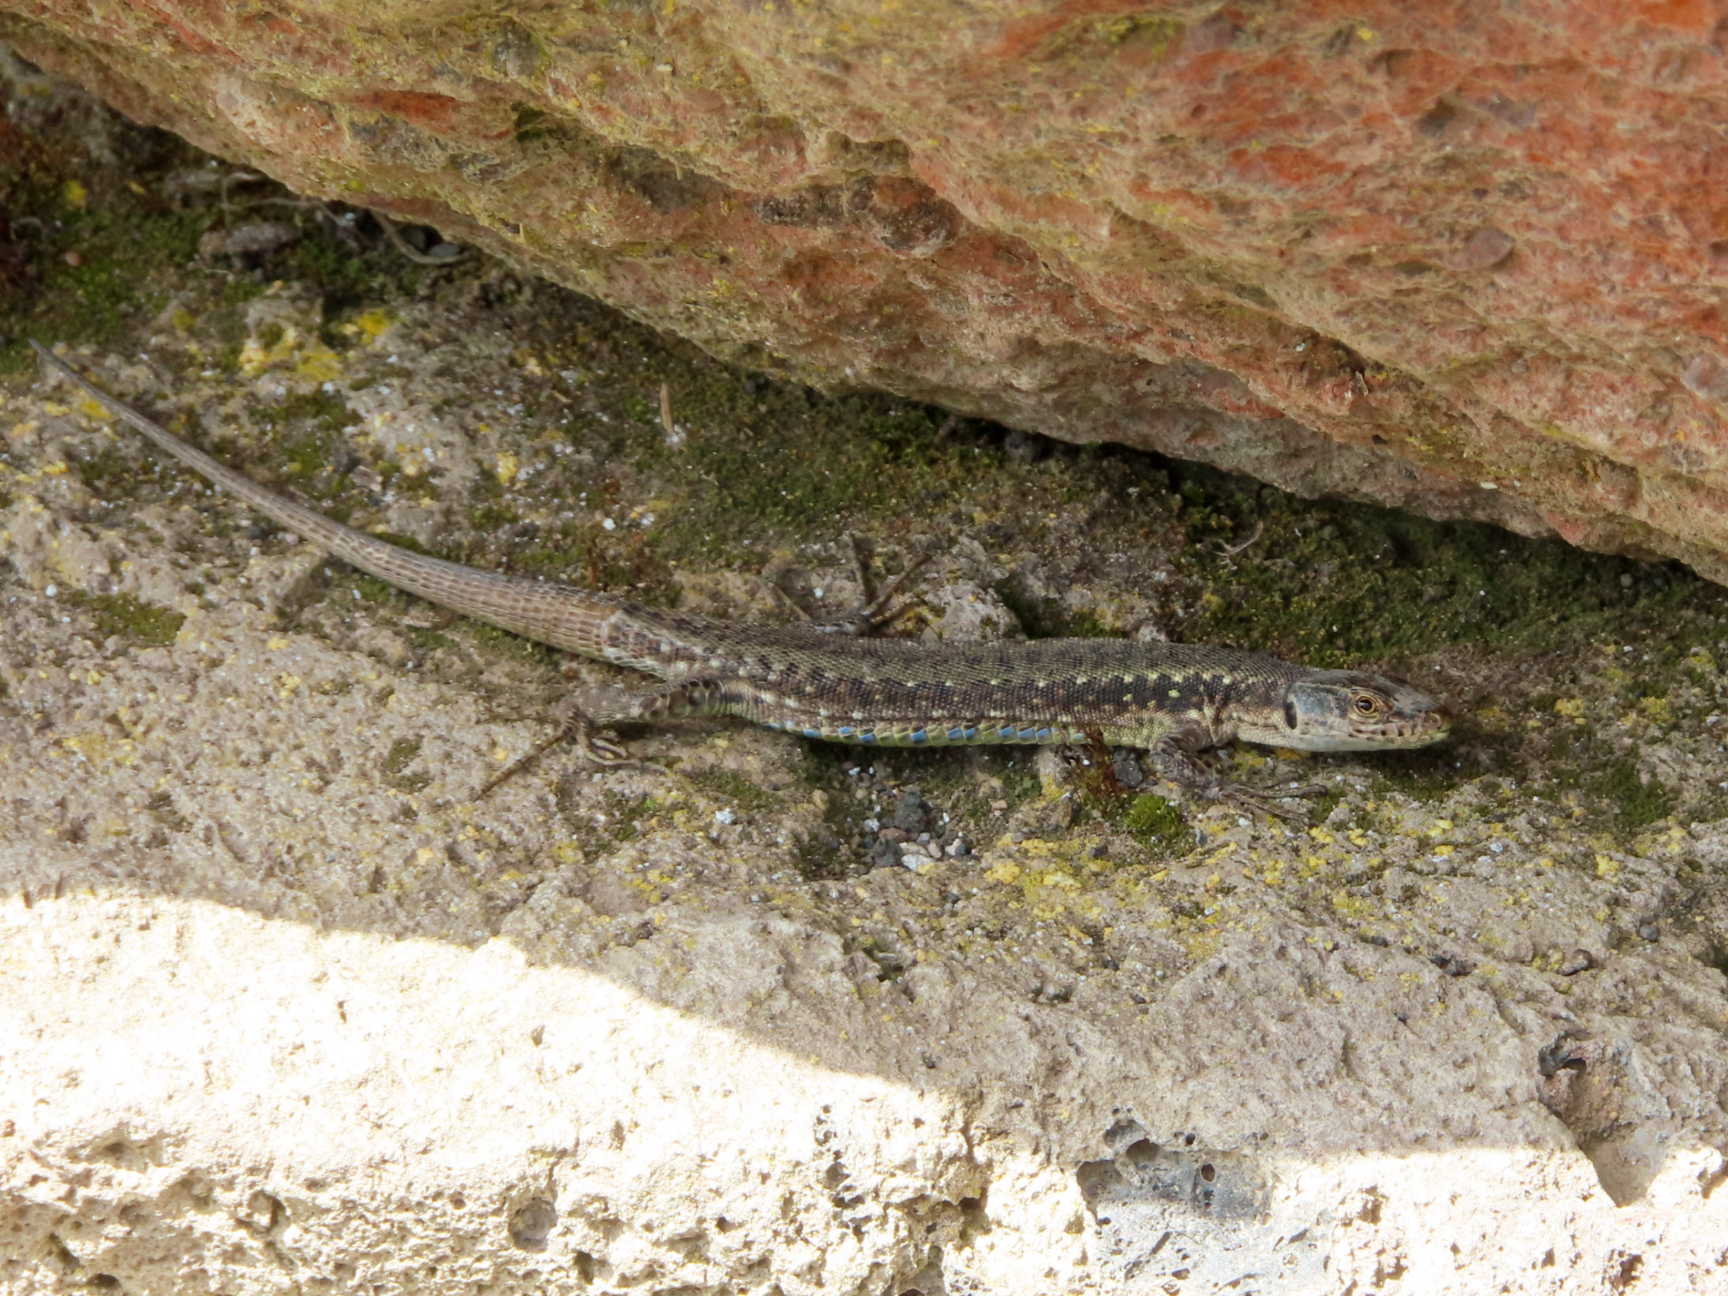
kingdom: Animalia
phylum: Chordata
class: Squamata
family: Lacertidae
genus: Darevskia
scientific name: Darevskia
